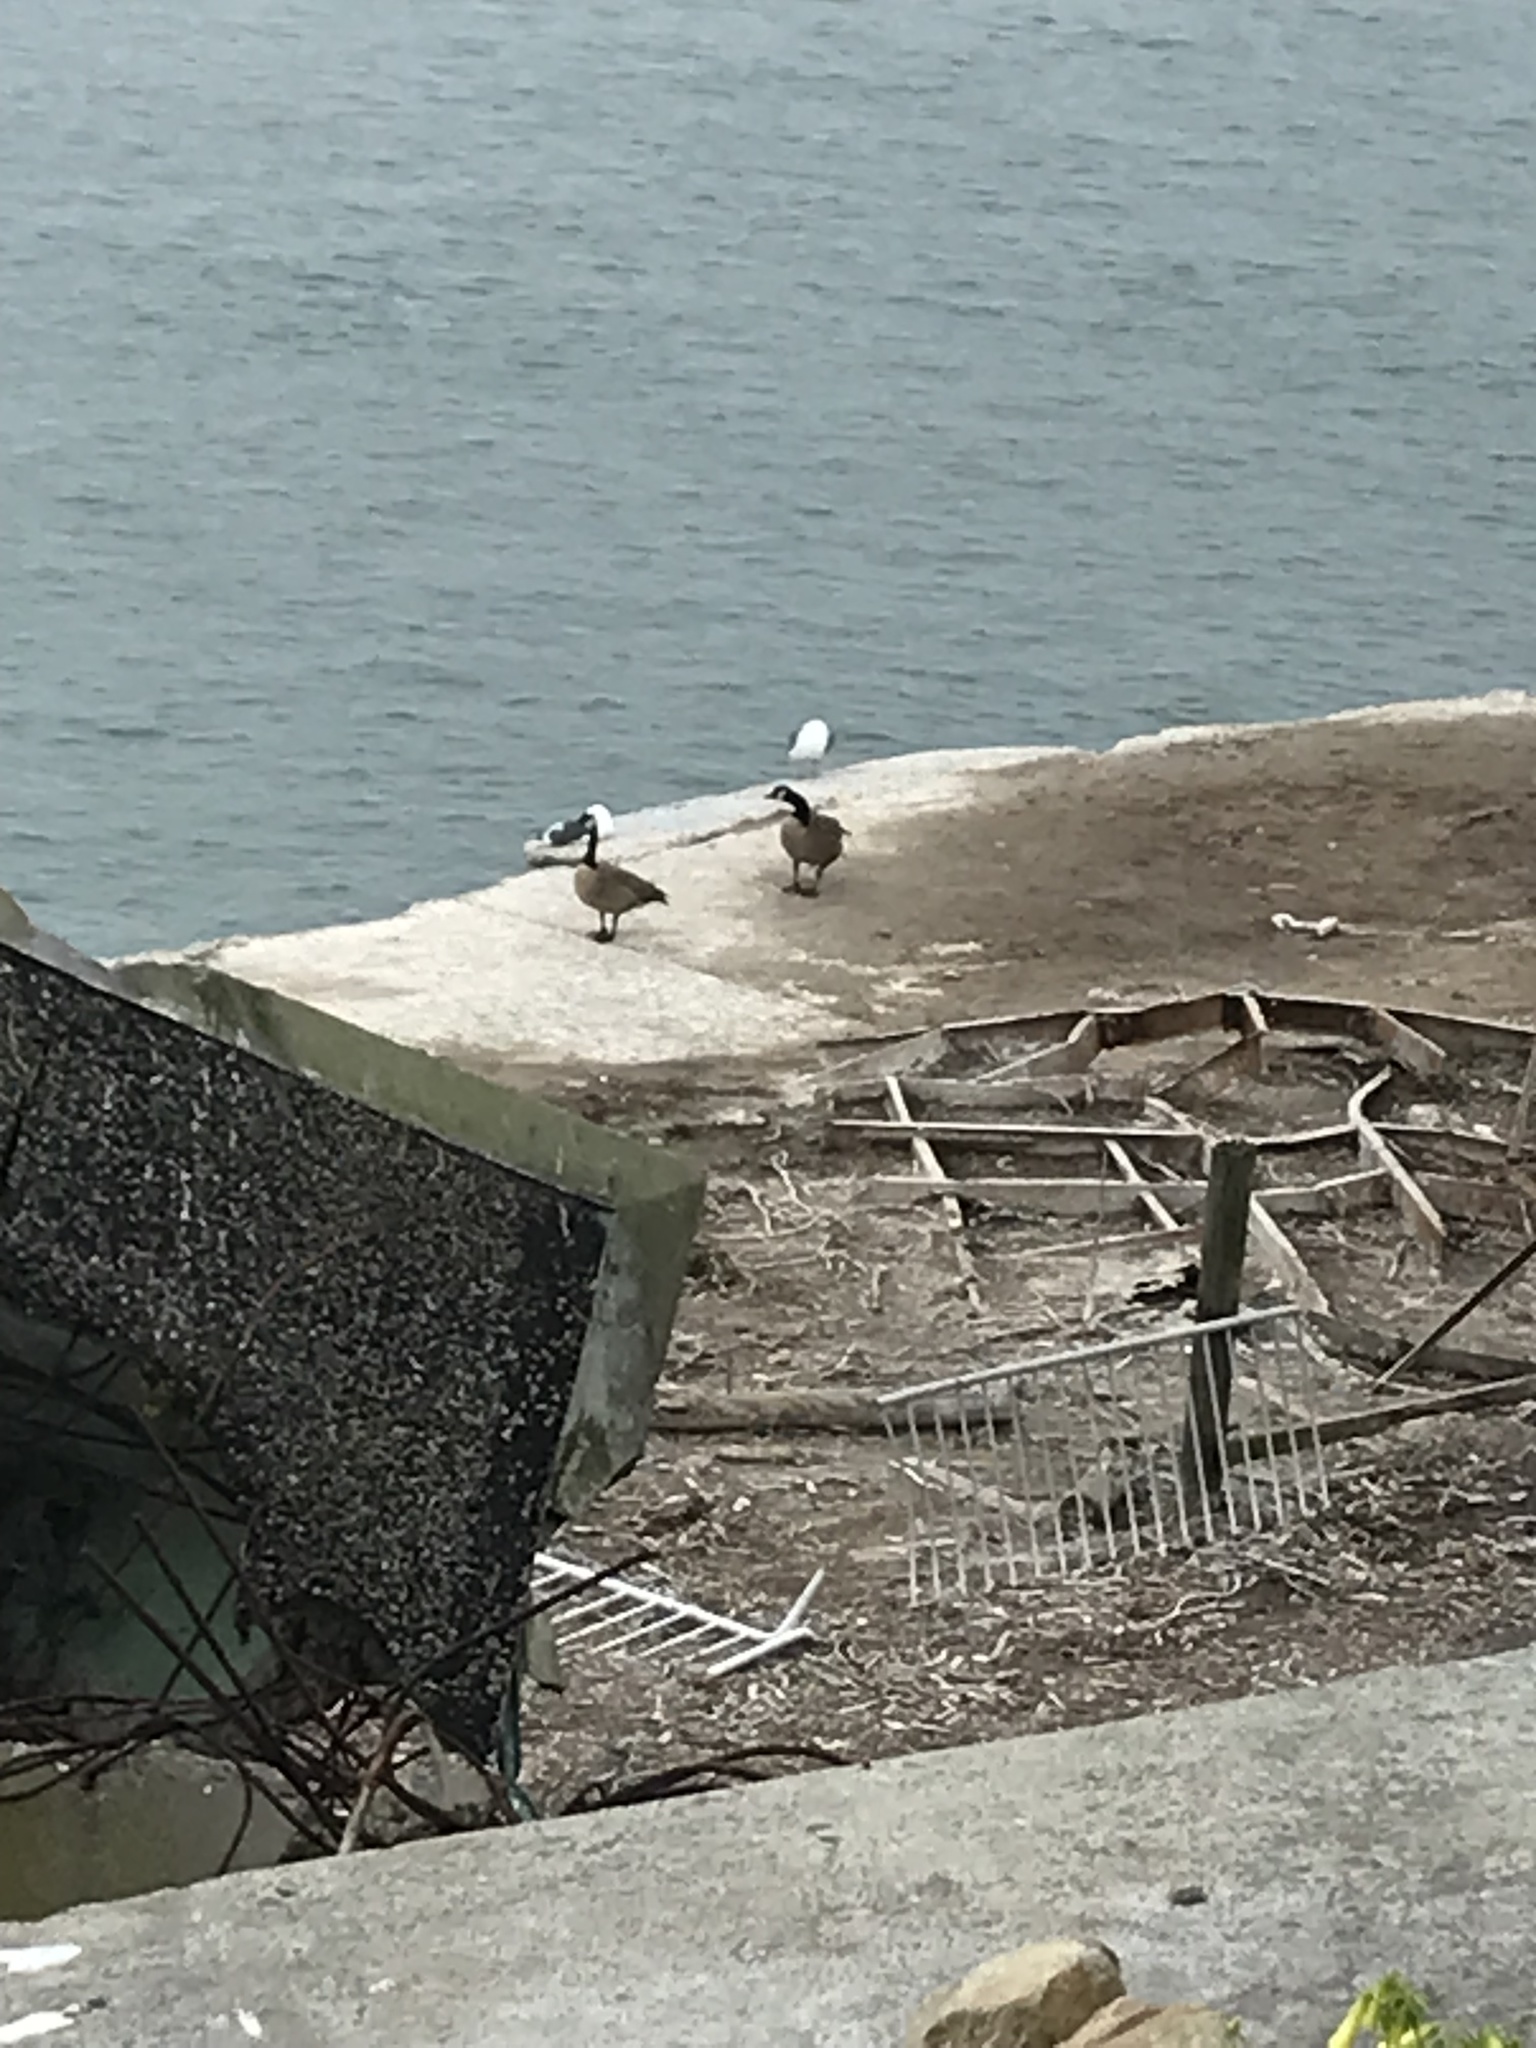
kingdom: Animalia
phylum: Chordata
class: Aves
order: Anseriformes
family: Anatidae
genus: Branta
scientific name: Branta canadensis
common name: Canada goose
